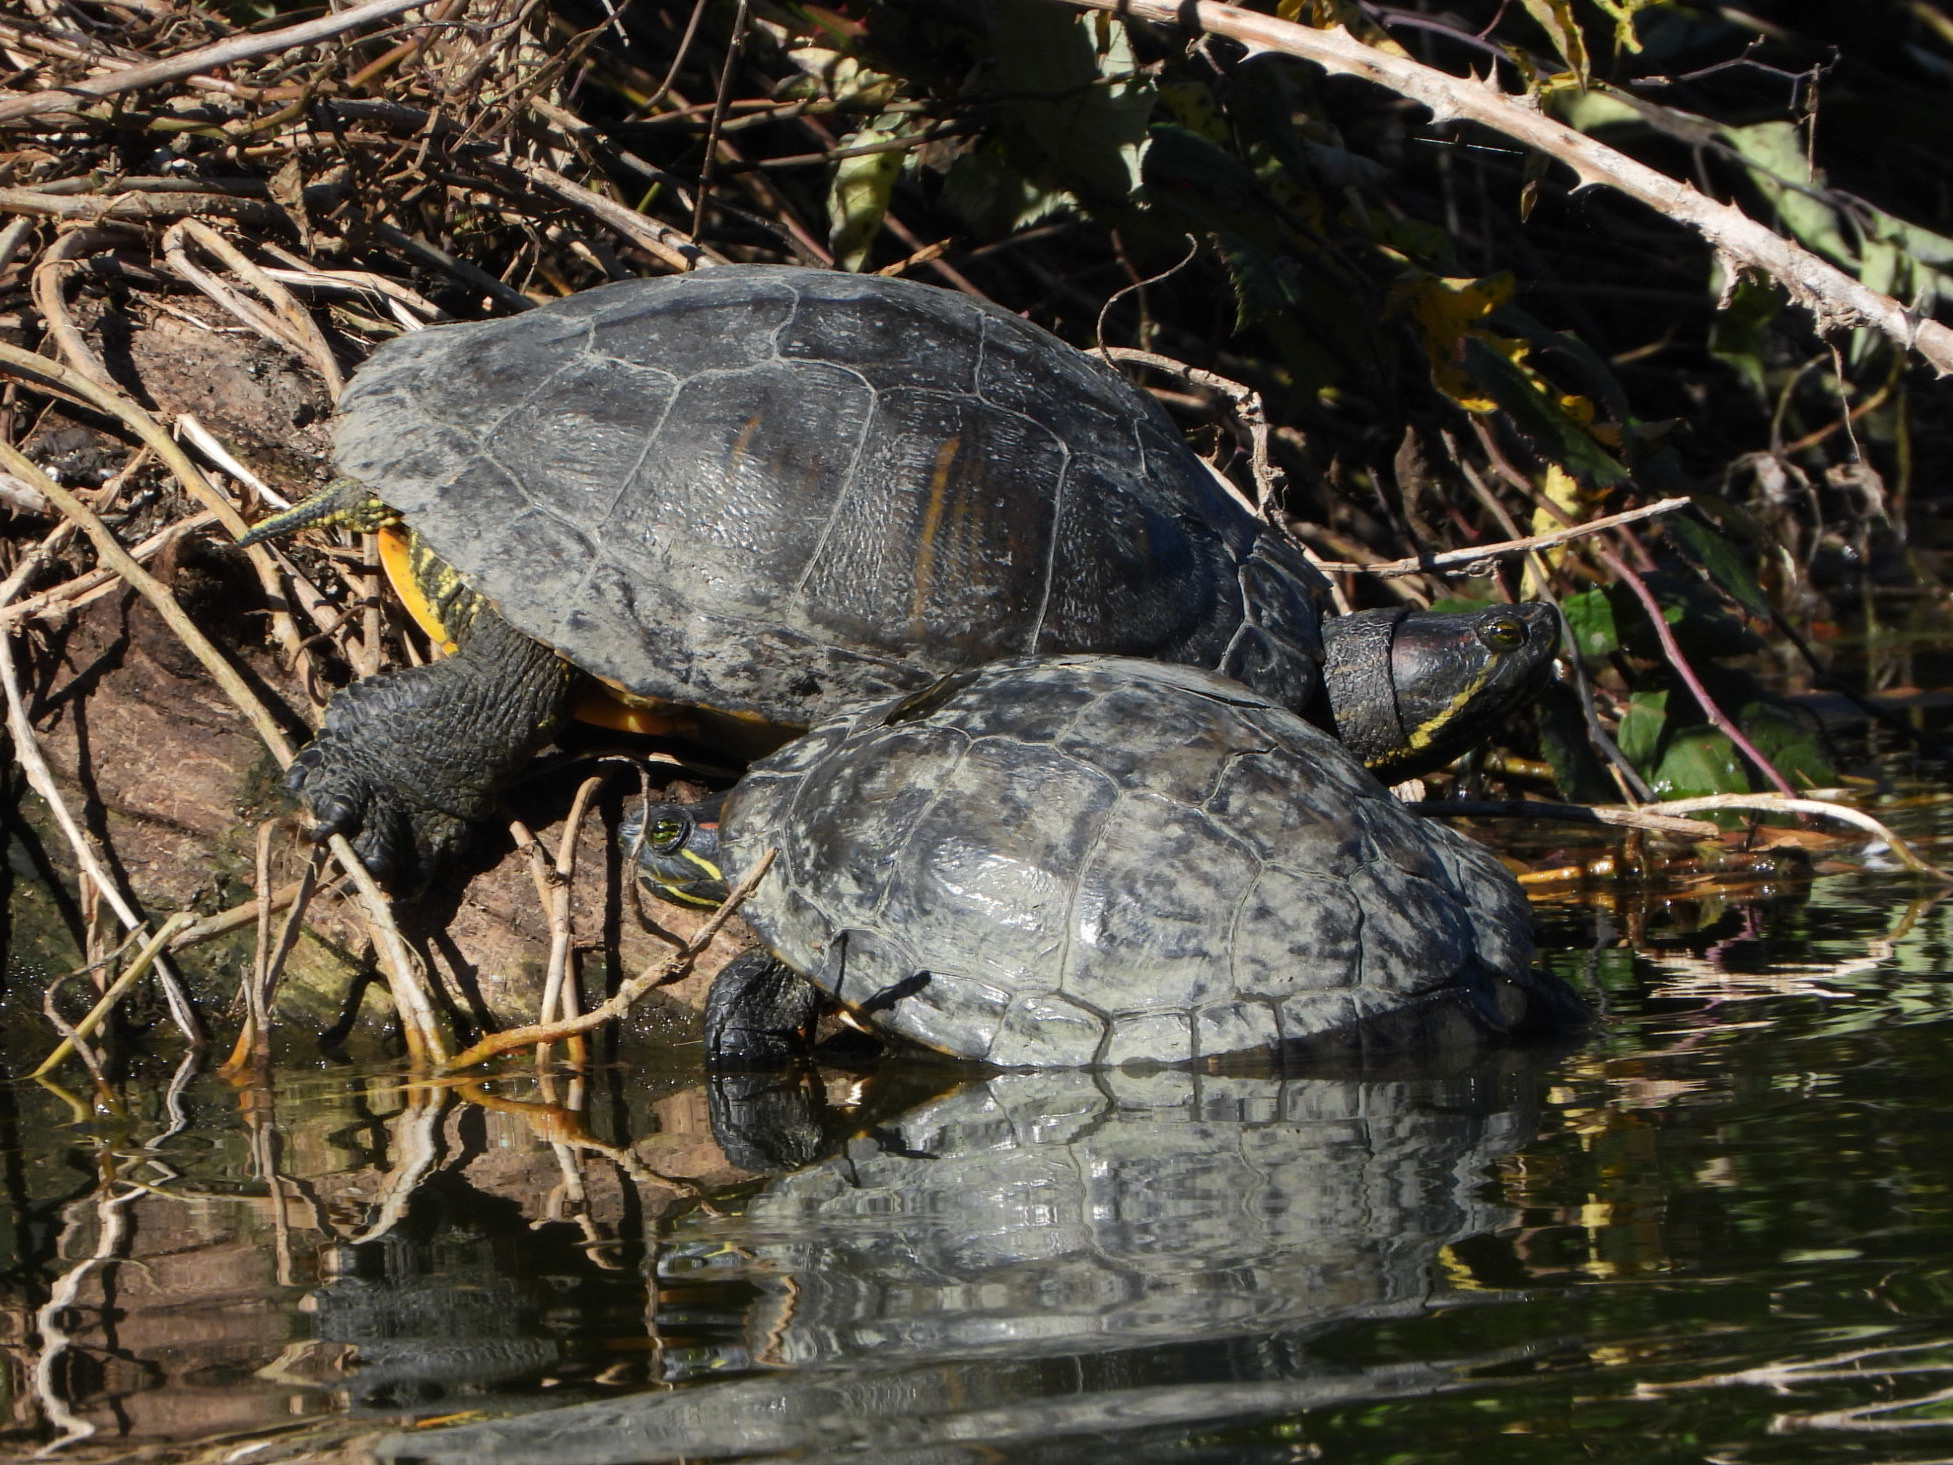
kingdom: Animalia
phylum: Chordata
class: Testudines
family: Emydidae
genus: Trachemys
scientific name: Trachemys scripta
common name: Slider
